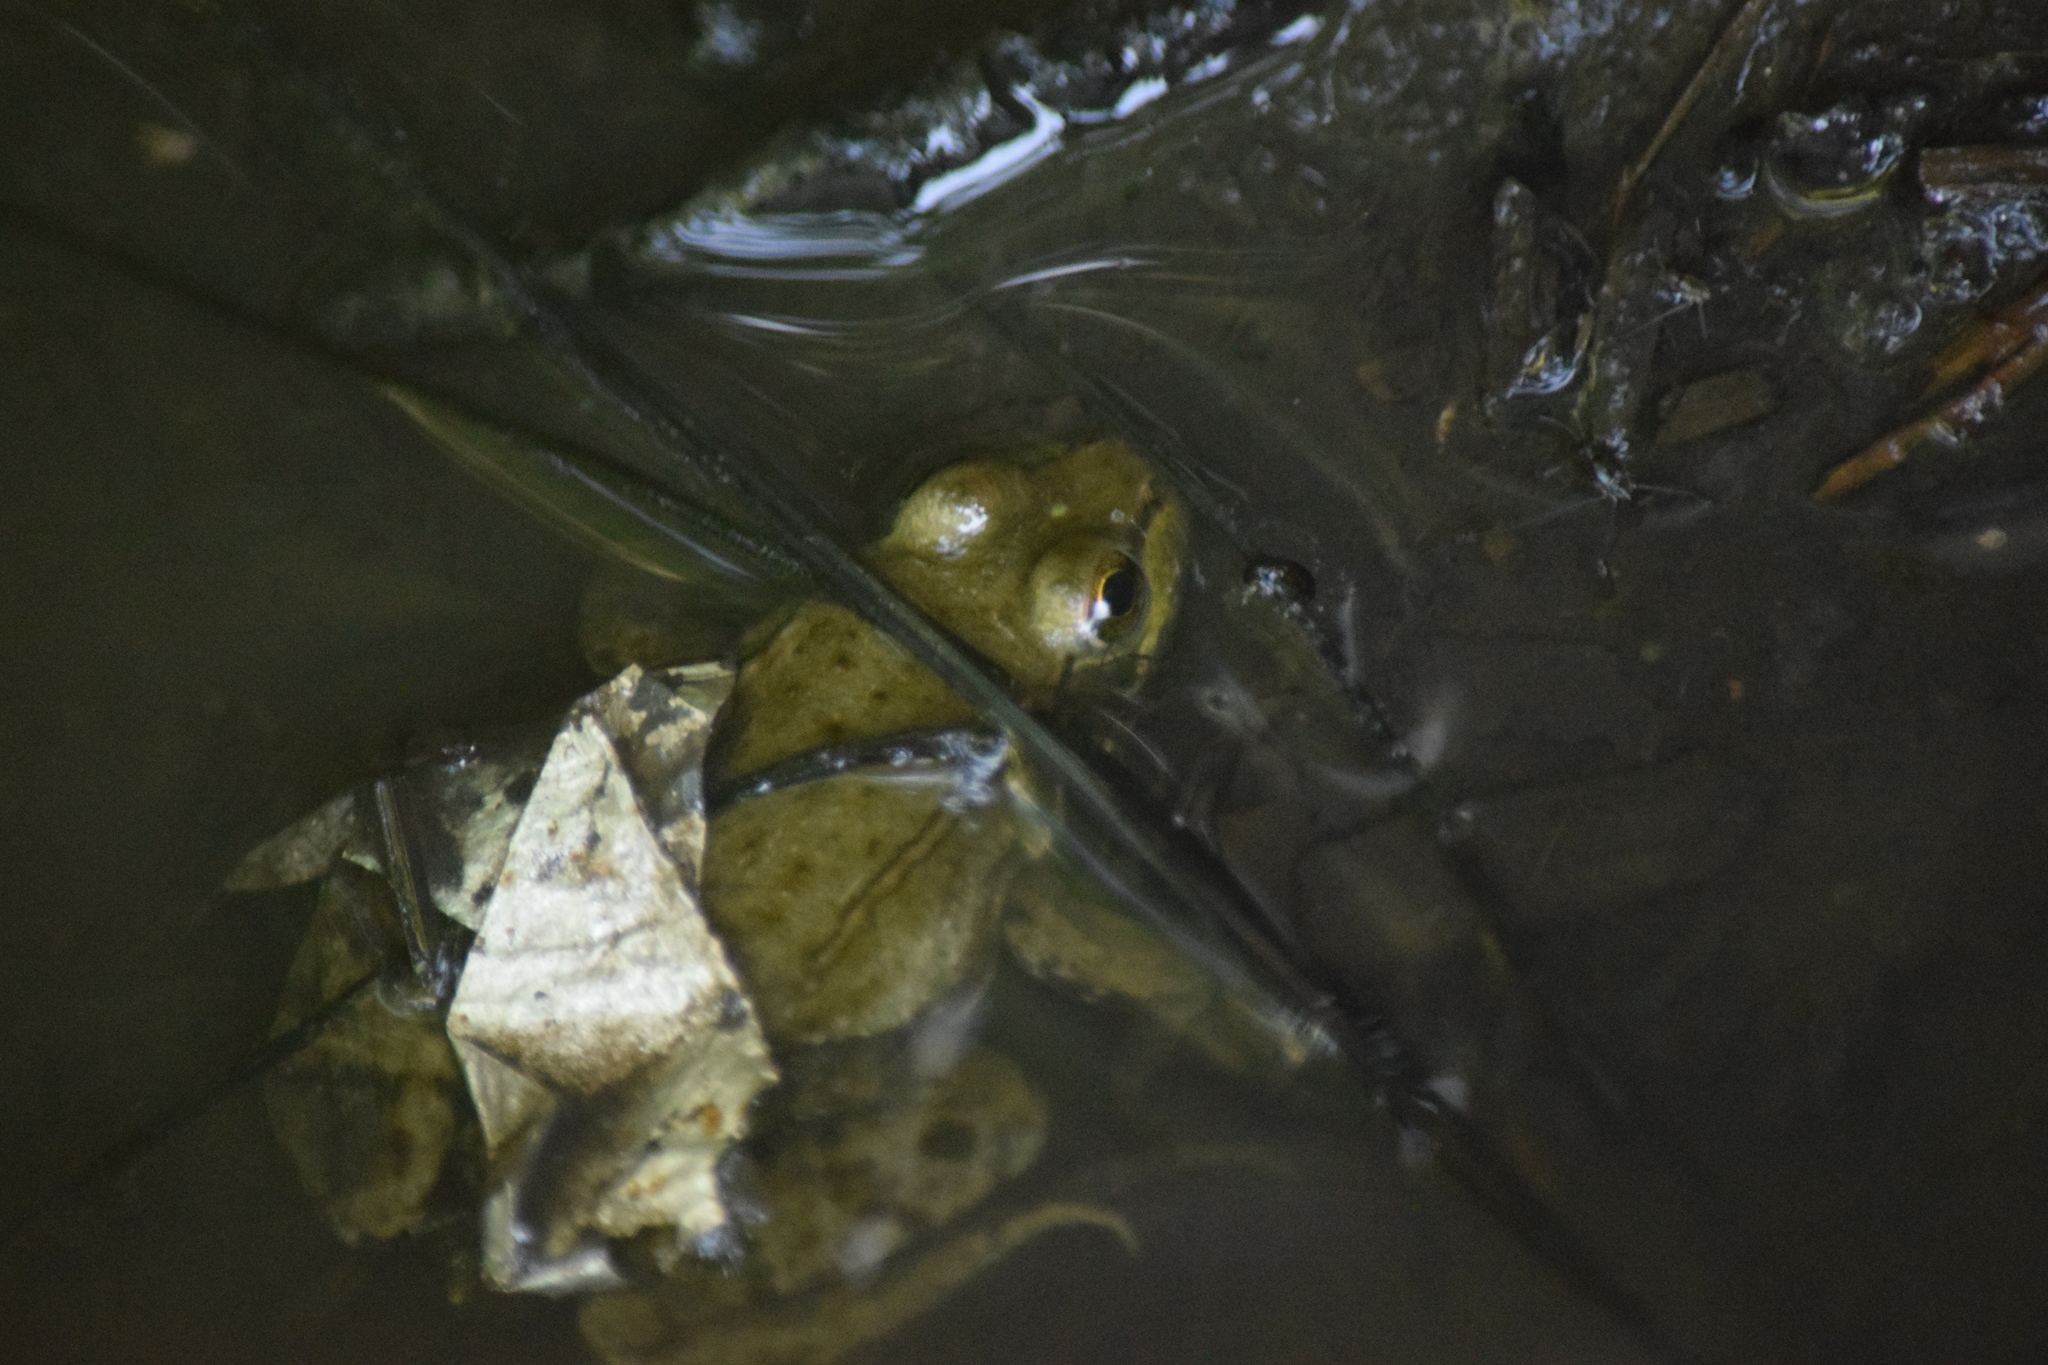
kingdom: Animalia
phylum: Chordata
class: Amphibia
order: Anura
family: Ranidae
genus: Lithobates
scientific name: Lithobates clamitans
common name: Green frog
